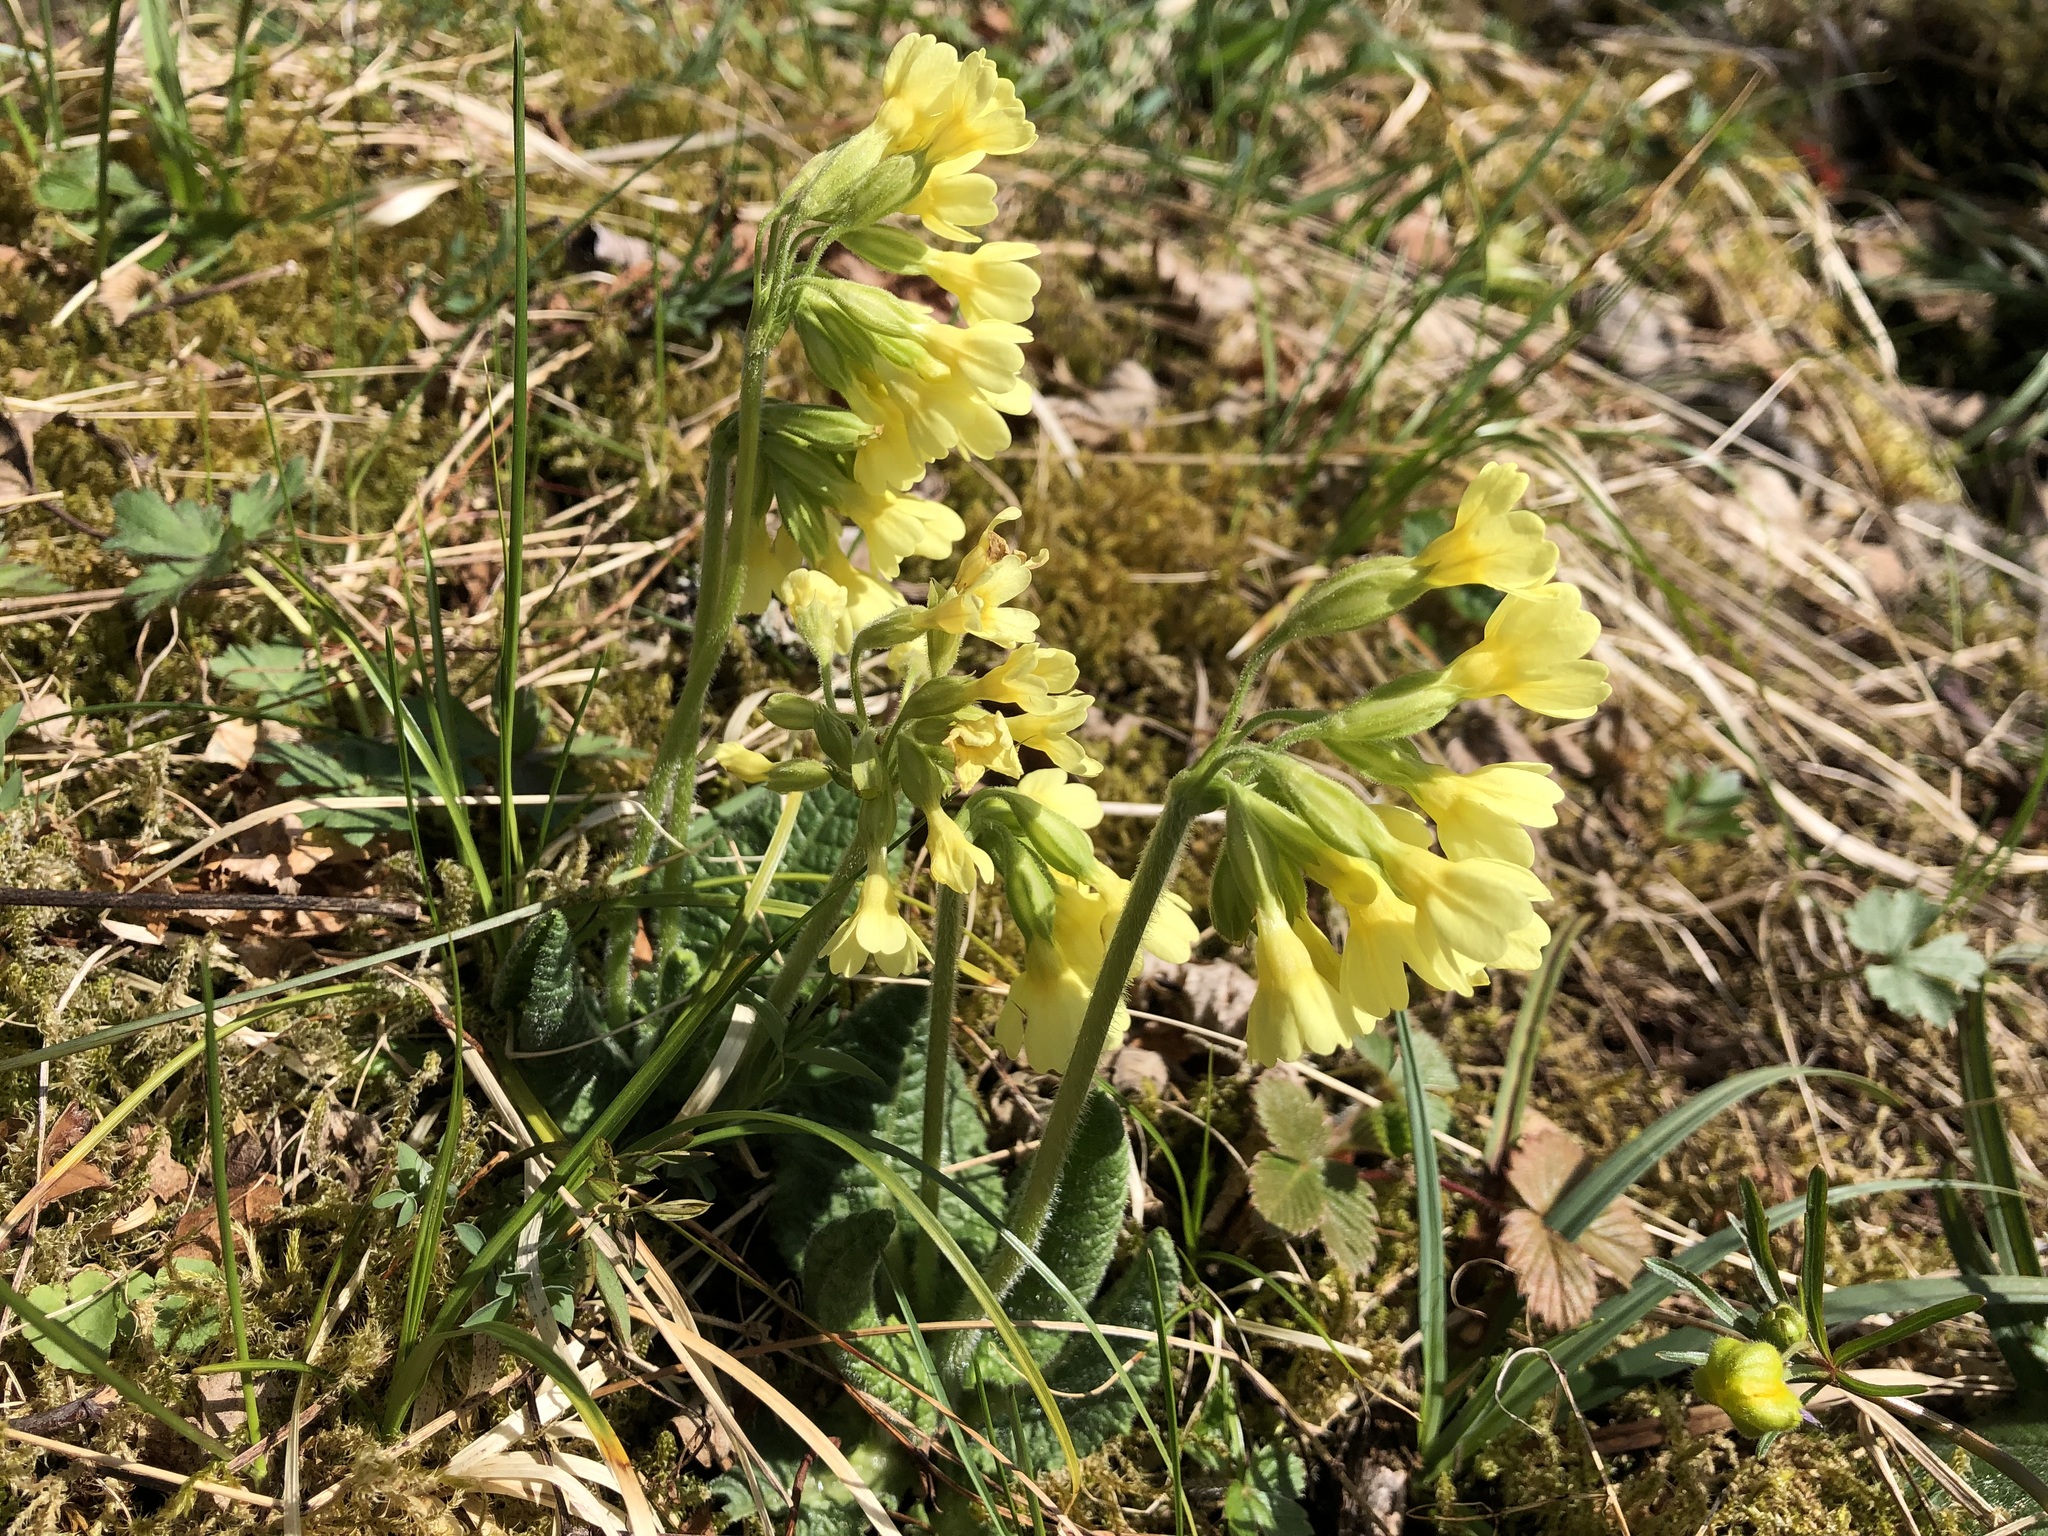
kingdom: Plantae
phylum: Tracheophyta
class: Magnoliopsida
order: Ericales
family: Primulaceae
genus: Primula
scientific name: Primula elatior
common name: Oxlip
